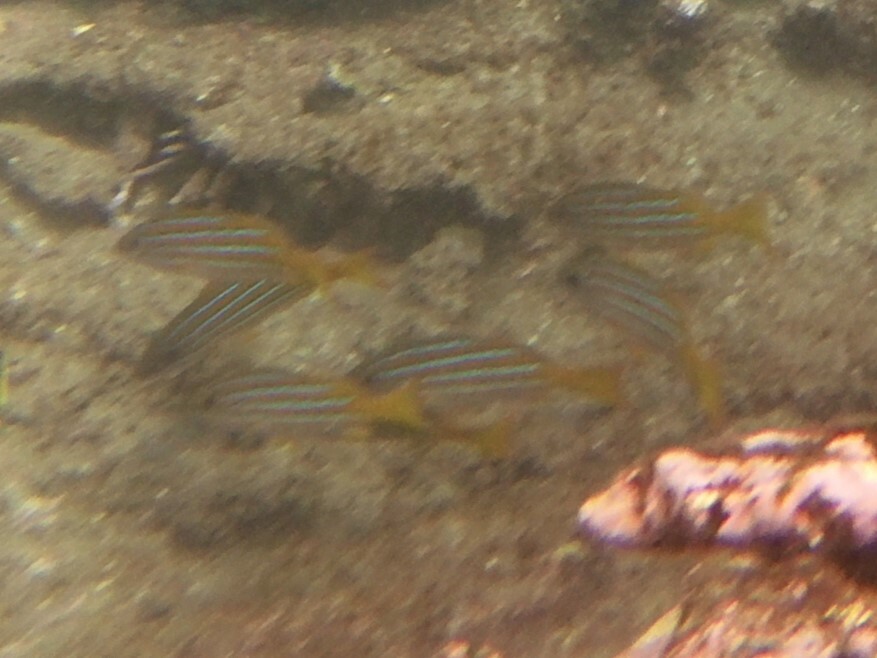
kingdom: Animalia
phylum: Chordata
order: Perciformes
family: Lutjanidae
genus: Lutjanus
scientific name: Lutjanus viridis
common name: Blue and gold snapper
